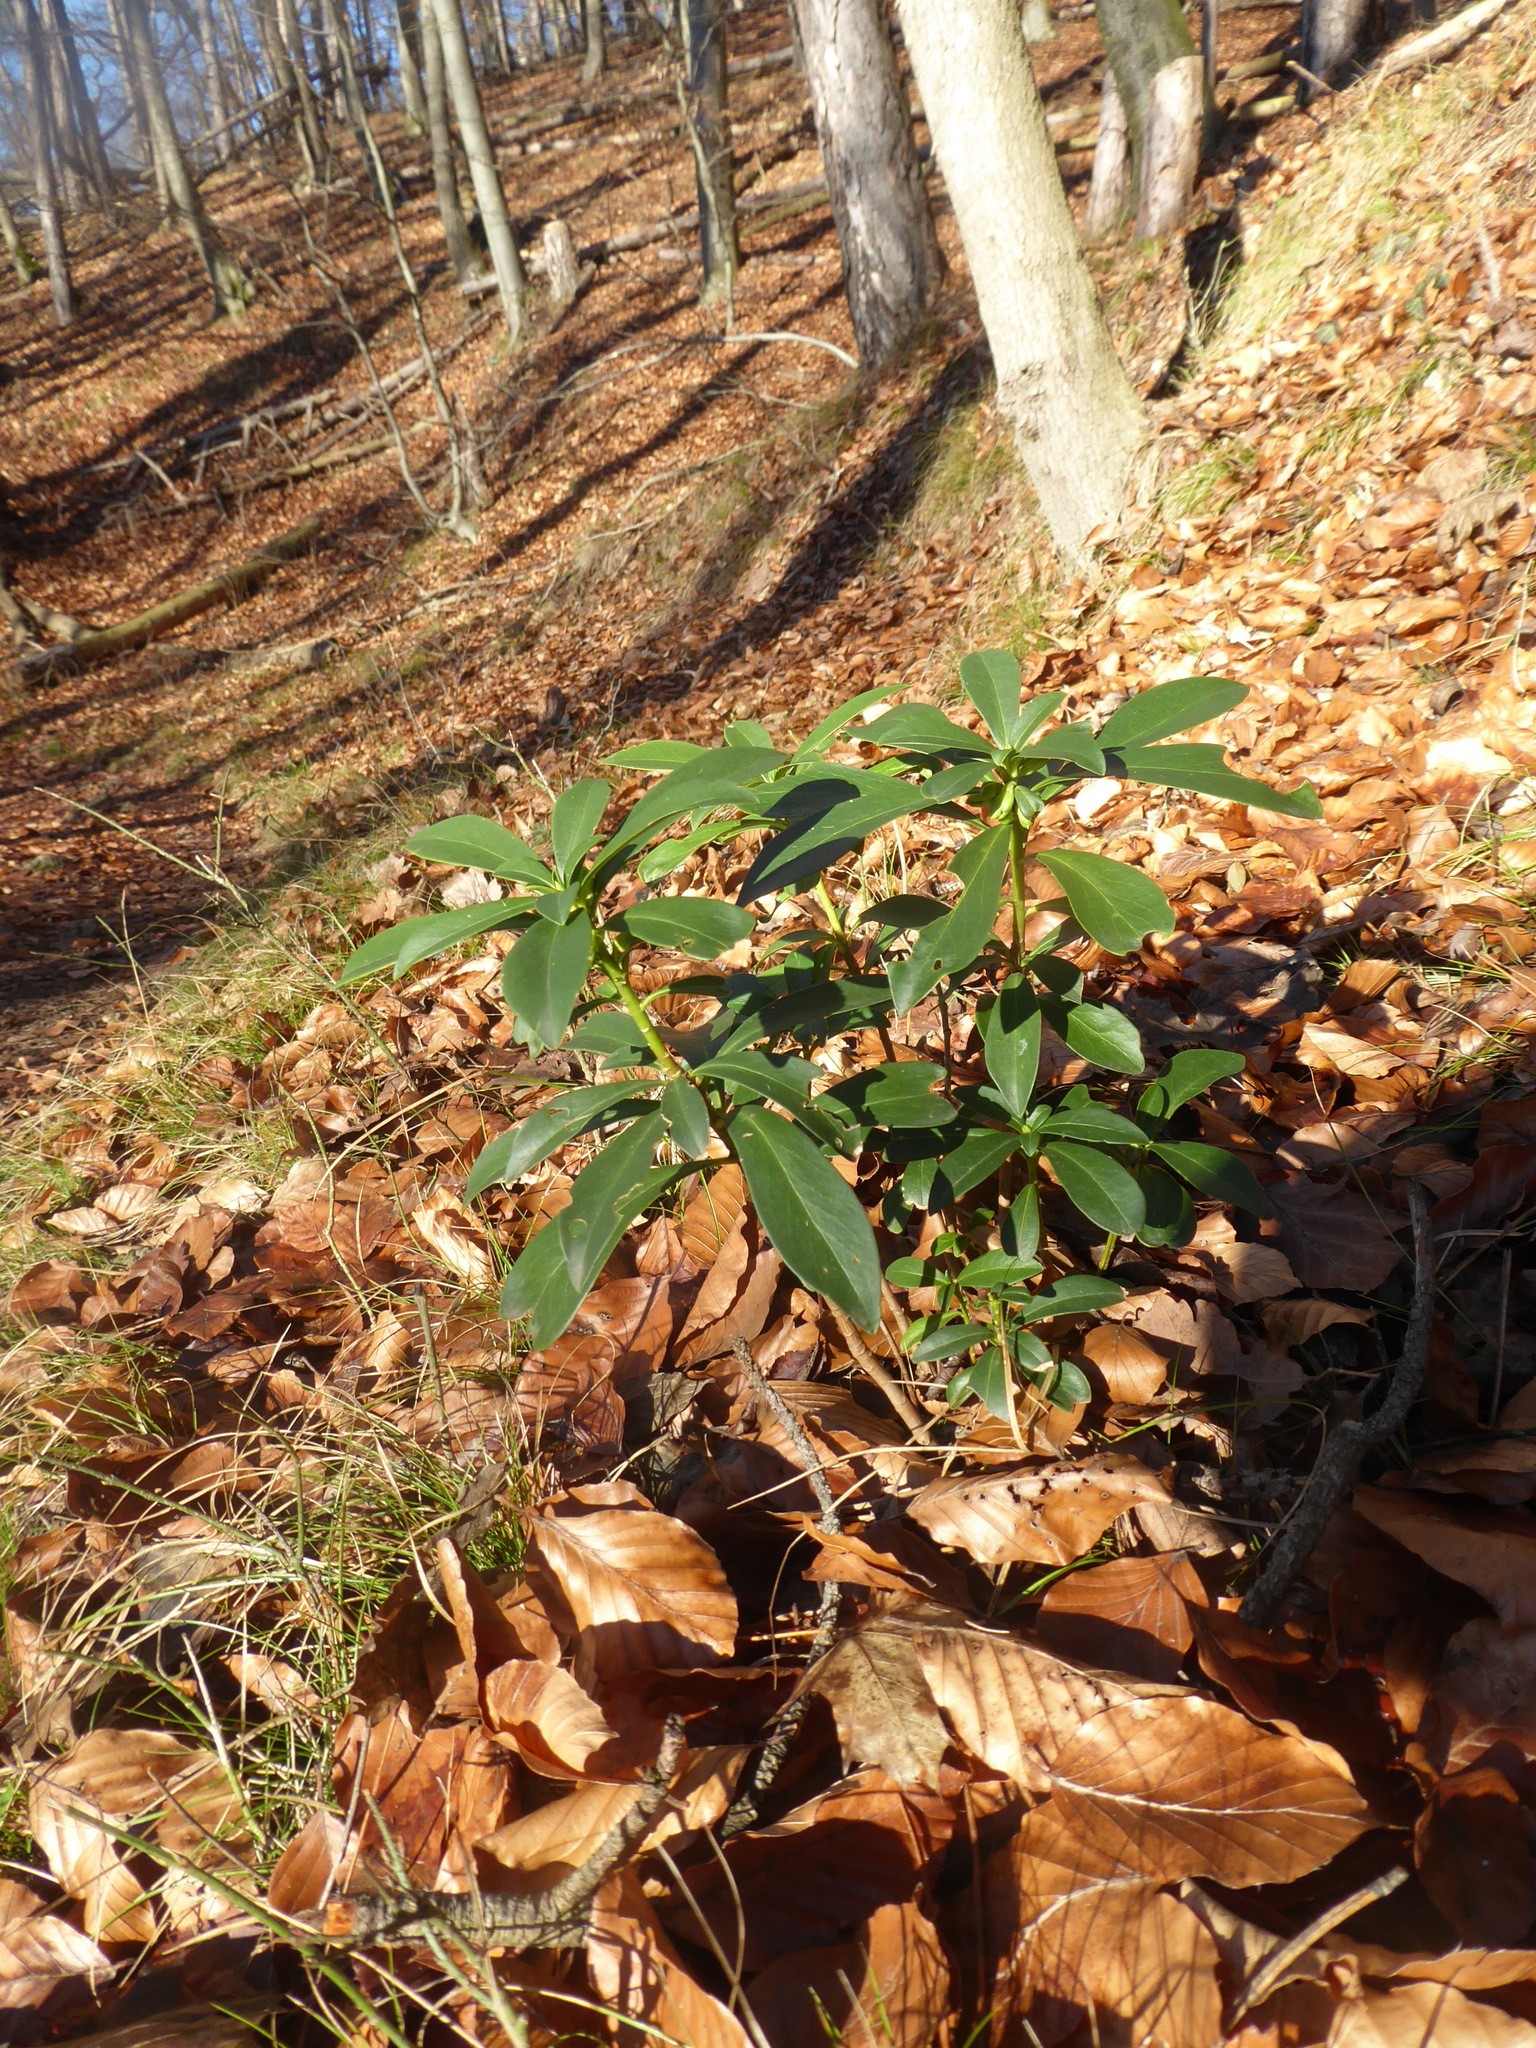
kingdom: Plantae
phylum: Tracheophyta
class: Magnoliopsida
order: Malvales
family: Thymelaeaceae
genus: Daphne
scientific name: Daphne laureola
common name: Spurge-laurel
